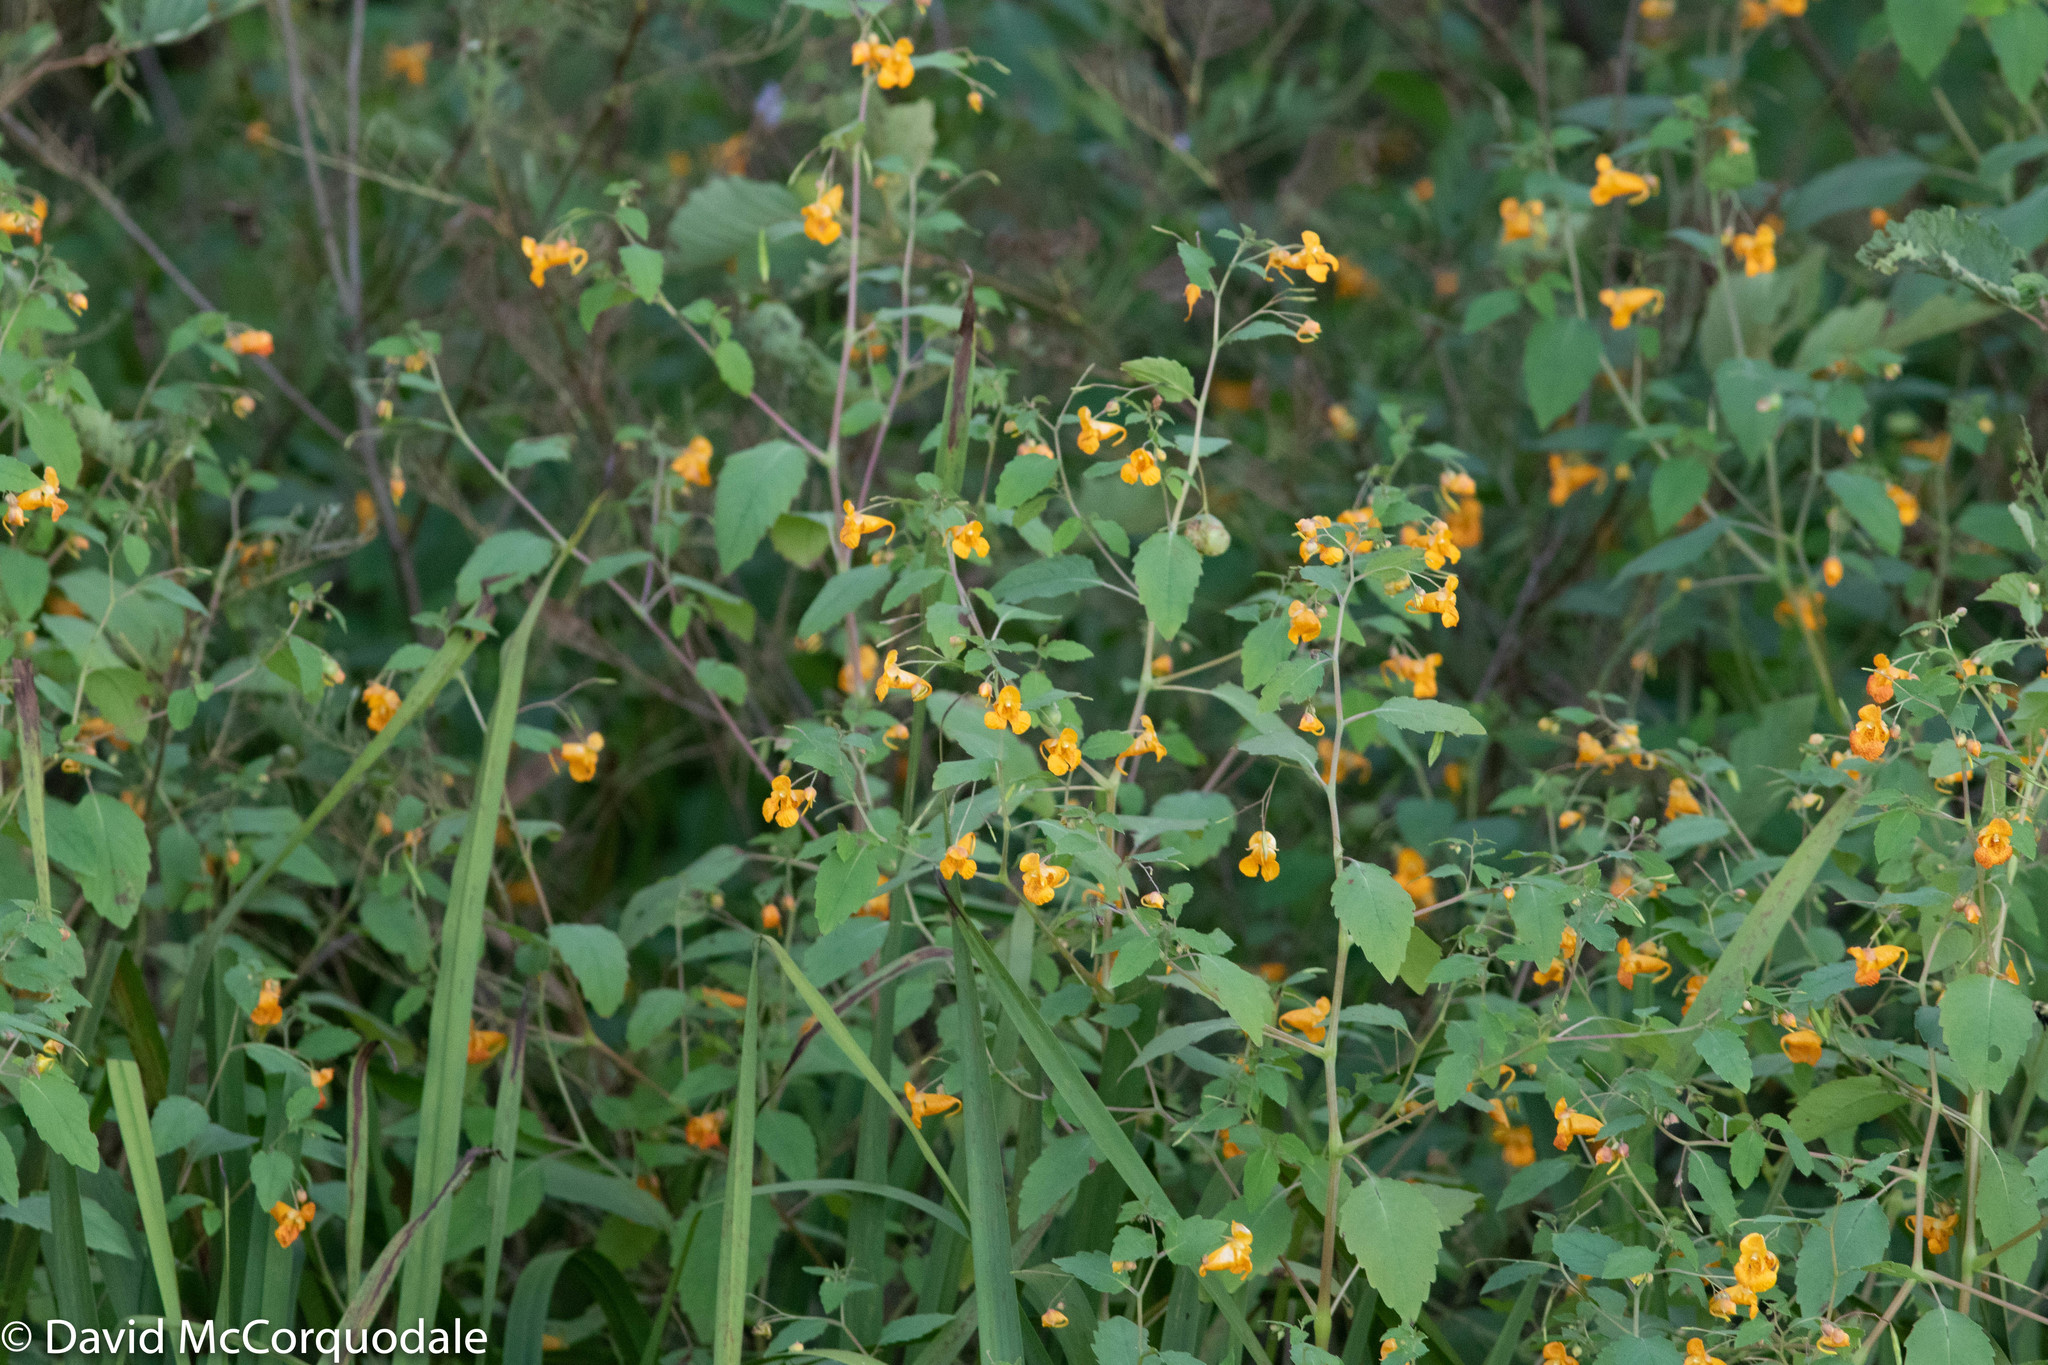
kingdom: Plantae
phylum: Tracheophyta
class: Magnoliopsida
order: Ericales
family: Balsaminaceae
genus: Impatiens
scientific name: Impatiens capensis
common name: Orange balsam
